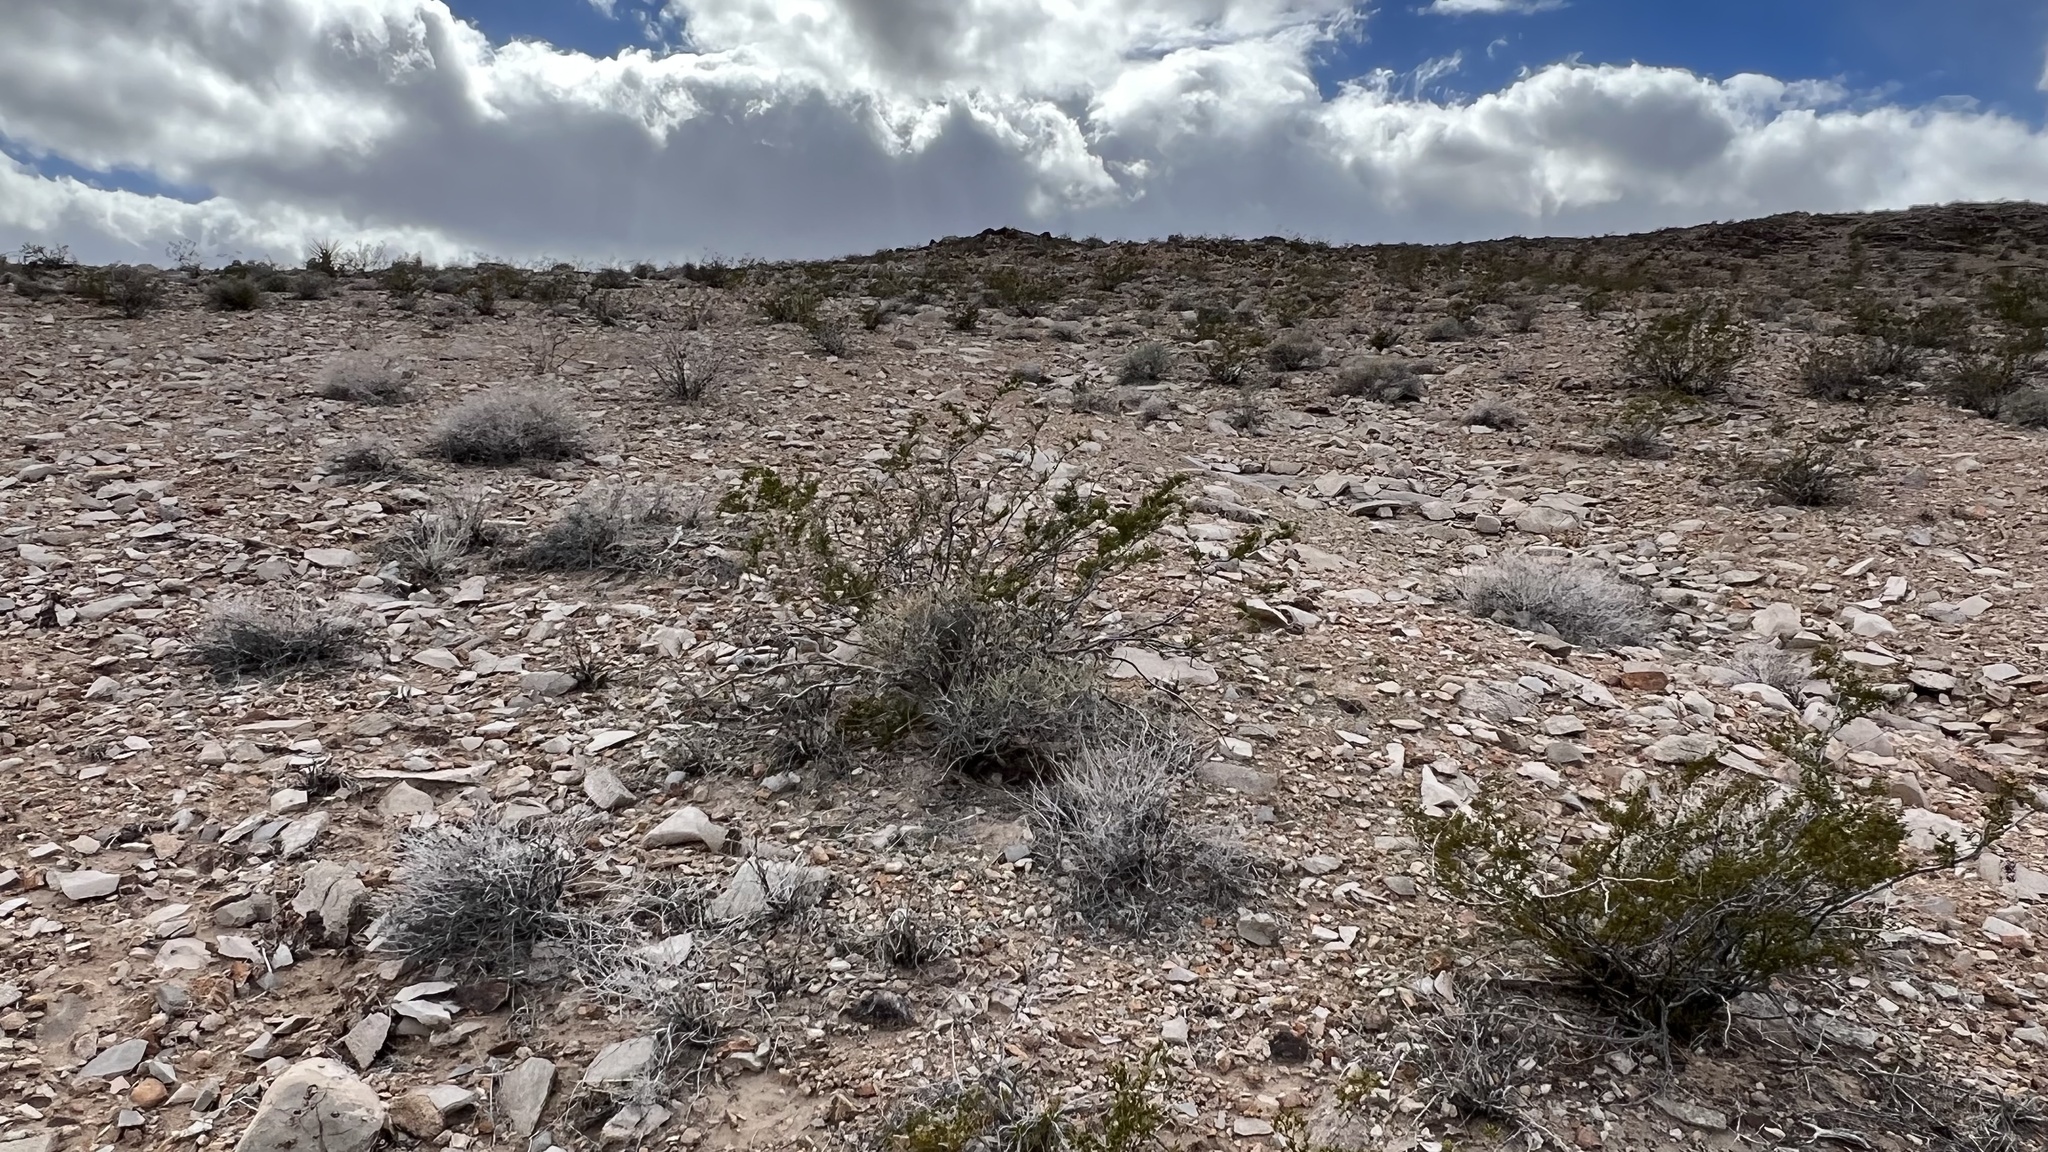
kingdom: Plantae
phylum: Tracheophyta
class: Gnetopsida
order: Ephedrales
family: Ephedraceae
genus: Ephedra
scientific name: Ephedra nevadensis
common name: Gray ephedra
